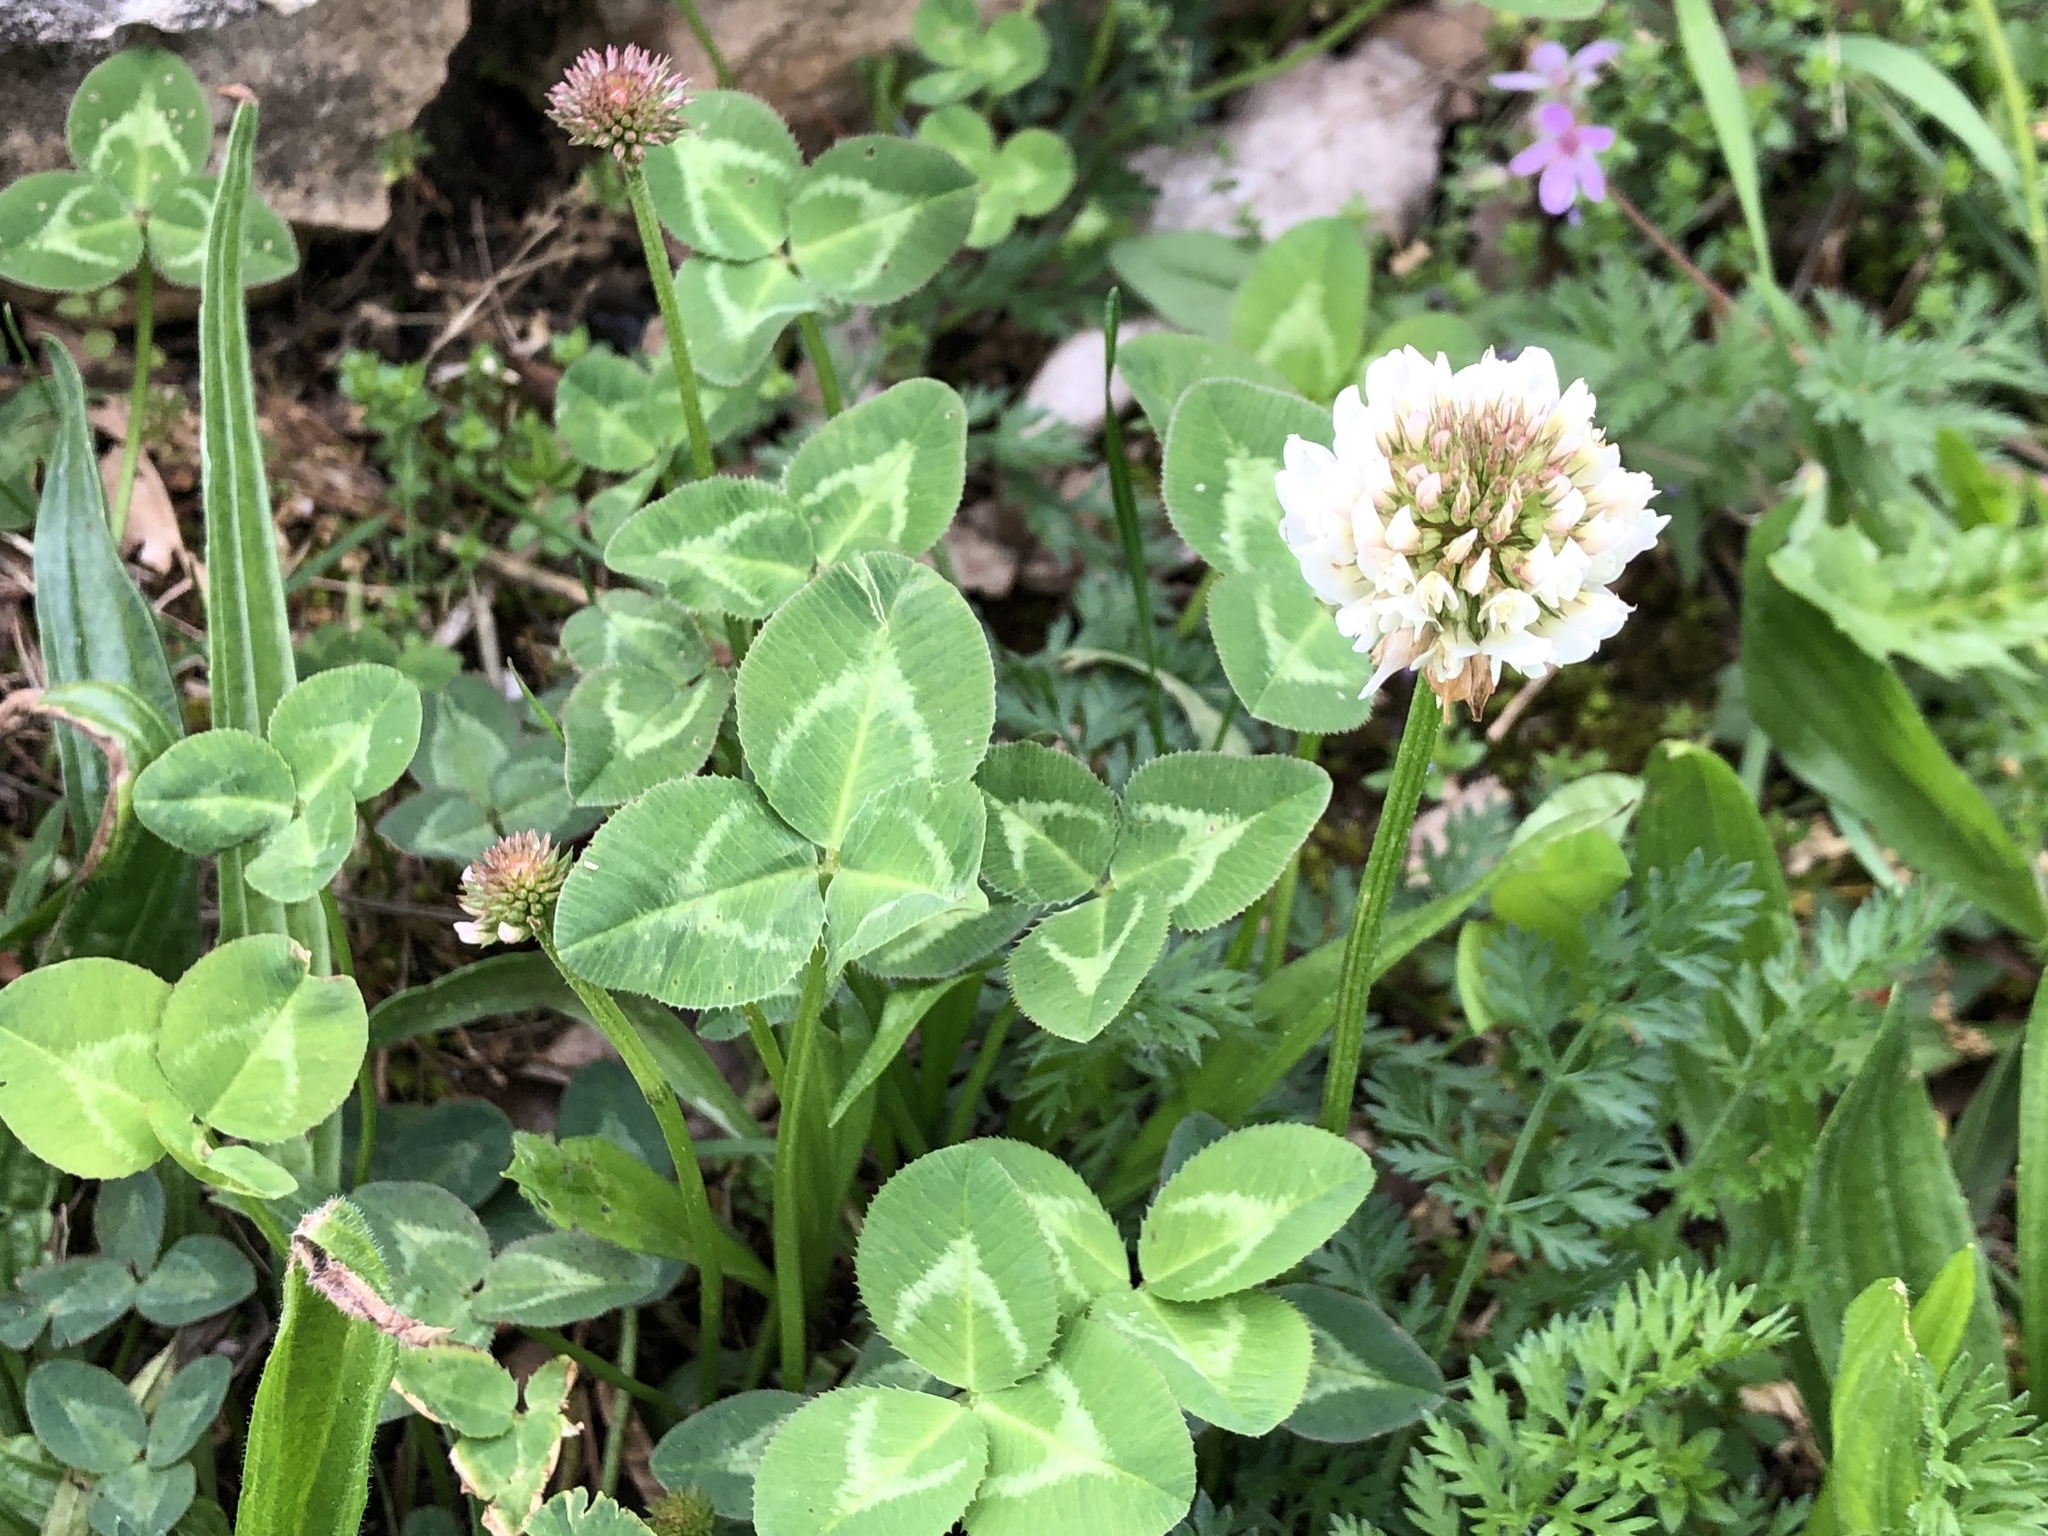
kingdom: Plantae
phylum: Tracheophyta
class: Magnoliopsida
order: Fabales
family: Fabaceae
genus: Trifolium
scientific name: Trifolium repens
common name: White clover
